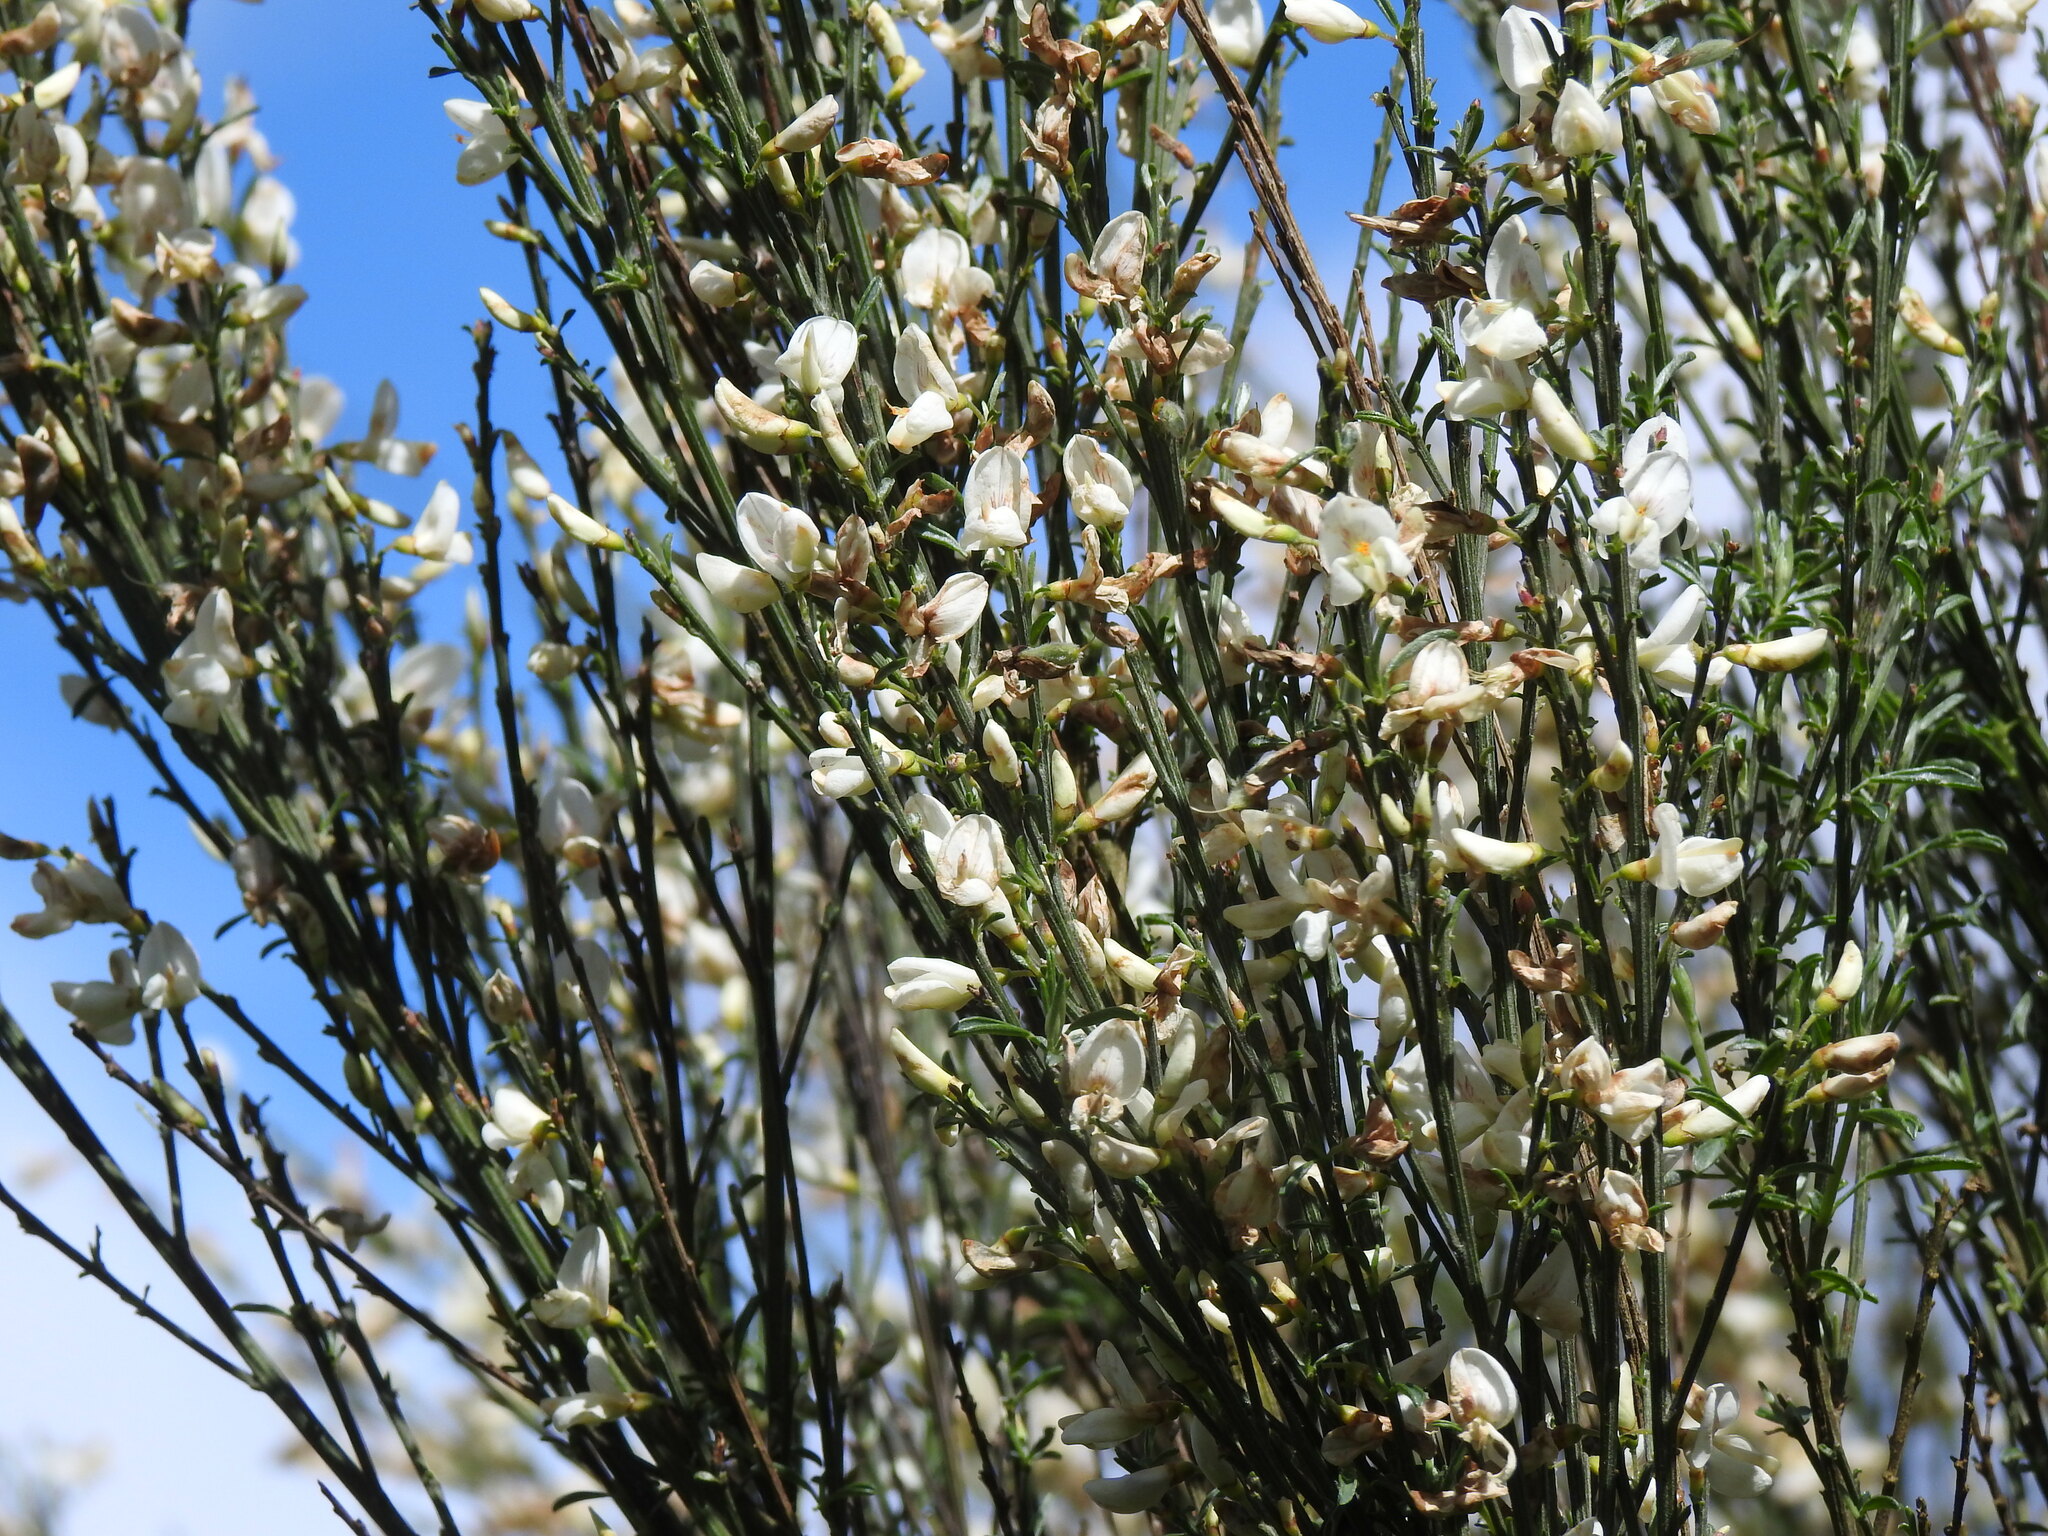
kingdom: Plantae
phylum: Tracheophyta
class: Magnoliopsida
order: Fabales
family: Fabaceae
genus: Cytisus
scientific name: Cytisus multiflorus
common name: White broom
